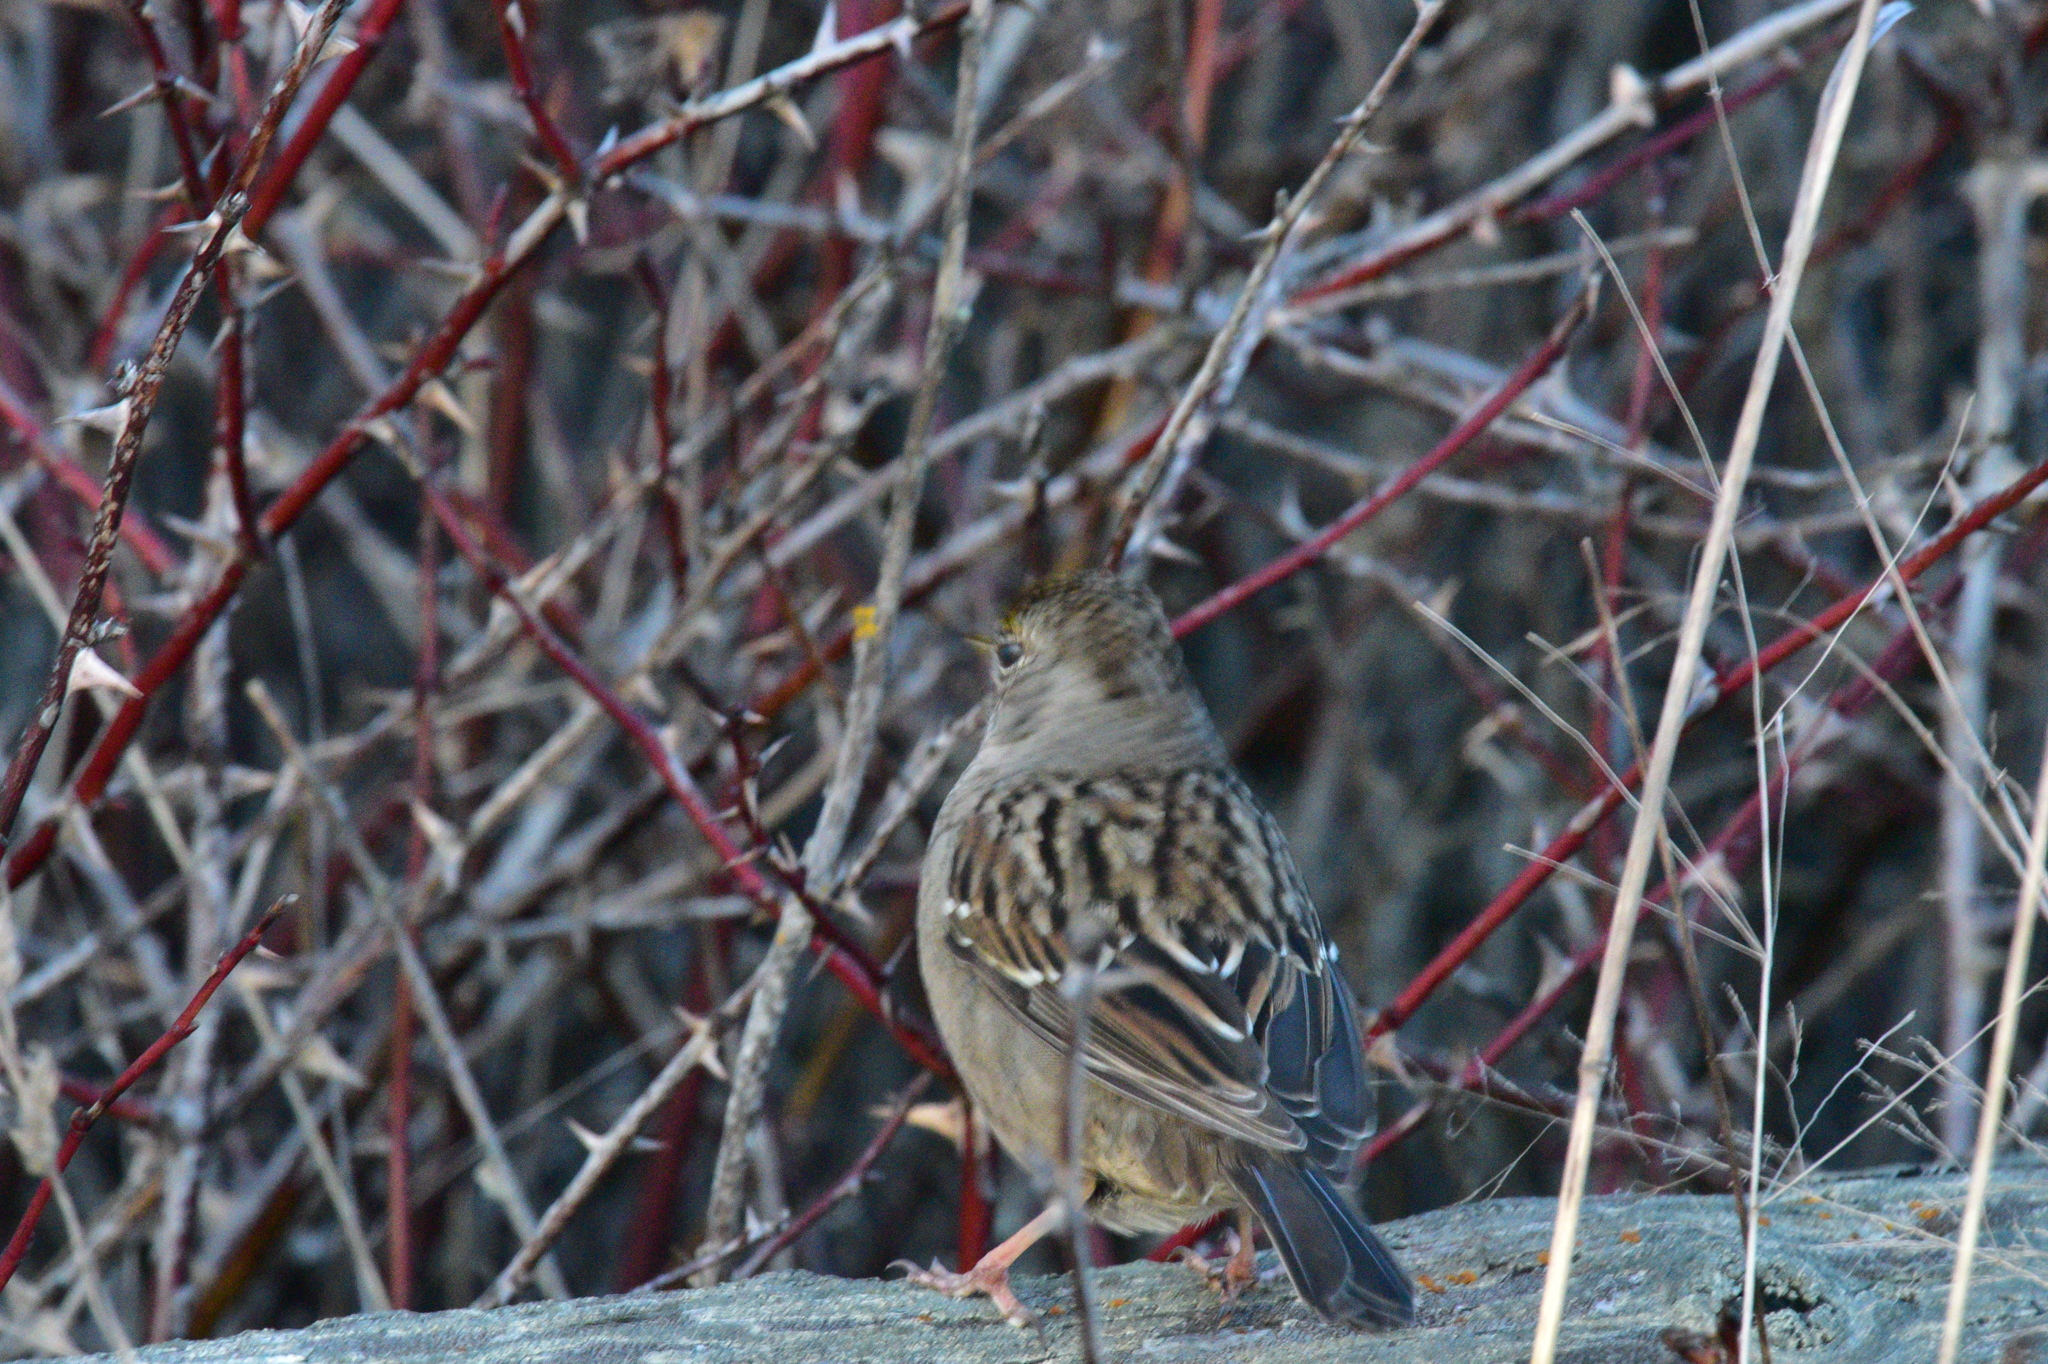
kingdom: Animalia
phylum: Chordata
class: Aves
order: Passeriformes
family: Passerellidae
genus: Zonotrichia
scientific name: Zonotrichia atricapilla
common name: Golden-crowned sparrow
